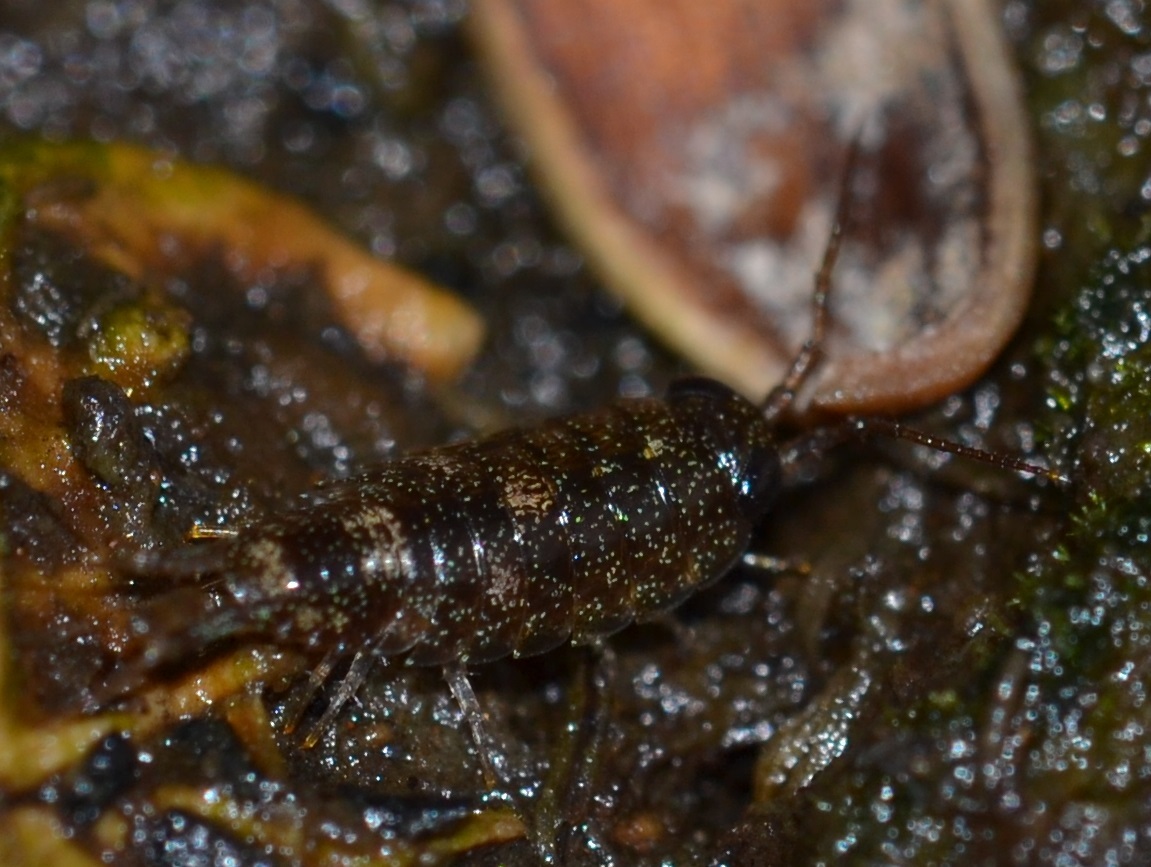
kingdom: Animalia
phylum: Arthropoda
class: Malacostraca
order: Isopoda
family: Ligiidae
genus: Ligia
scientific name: Ligia kamehameha
